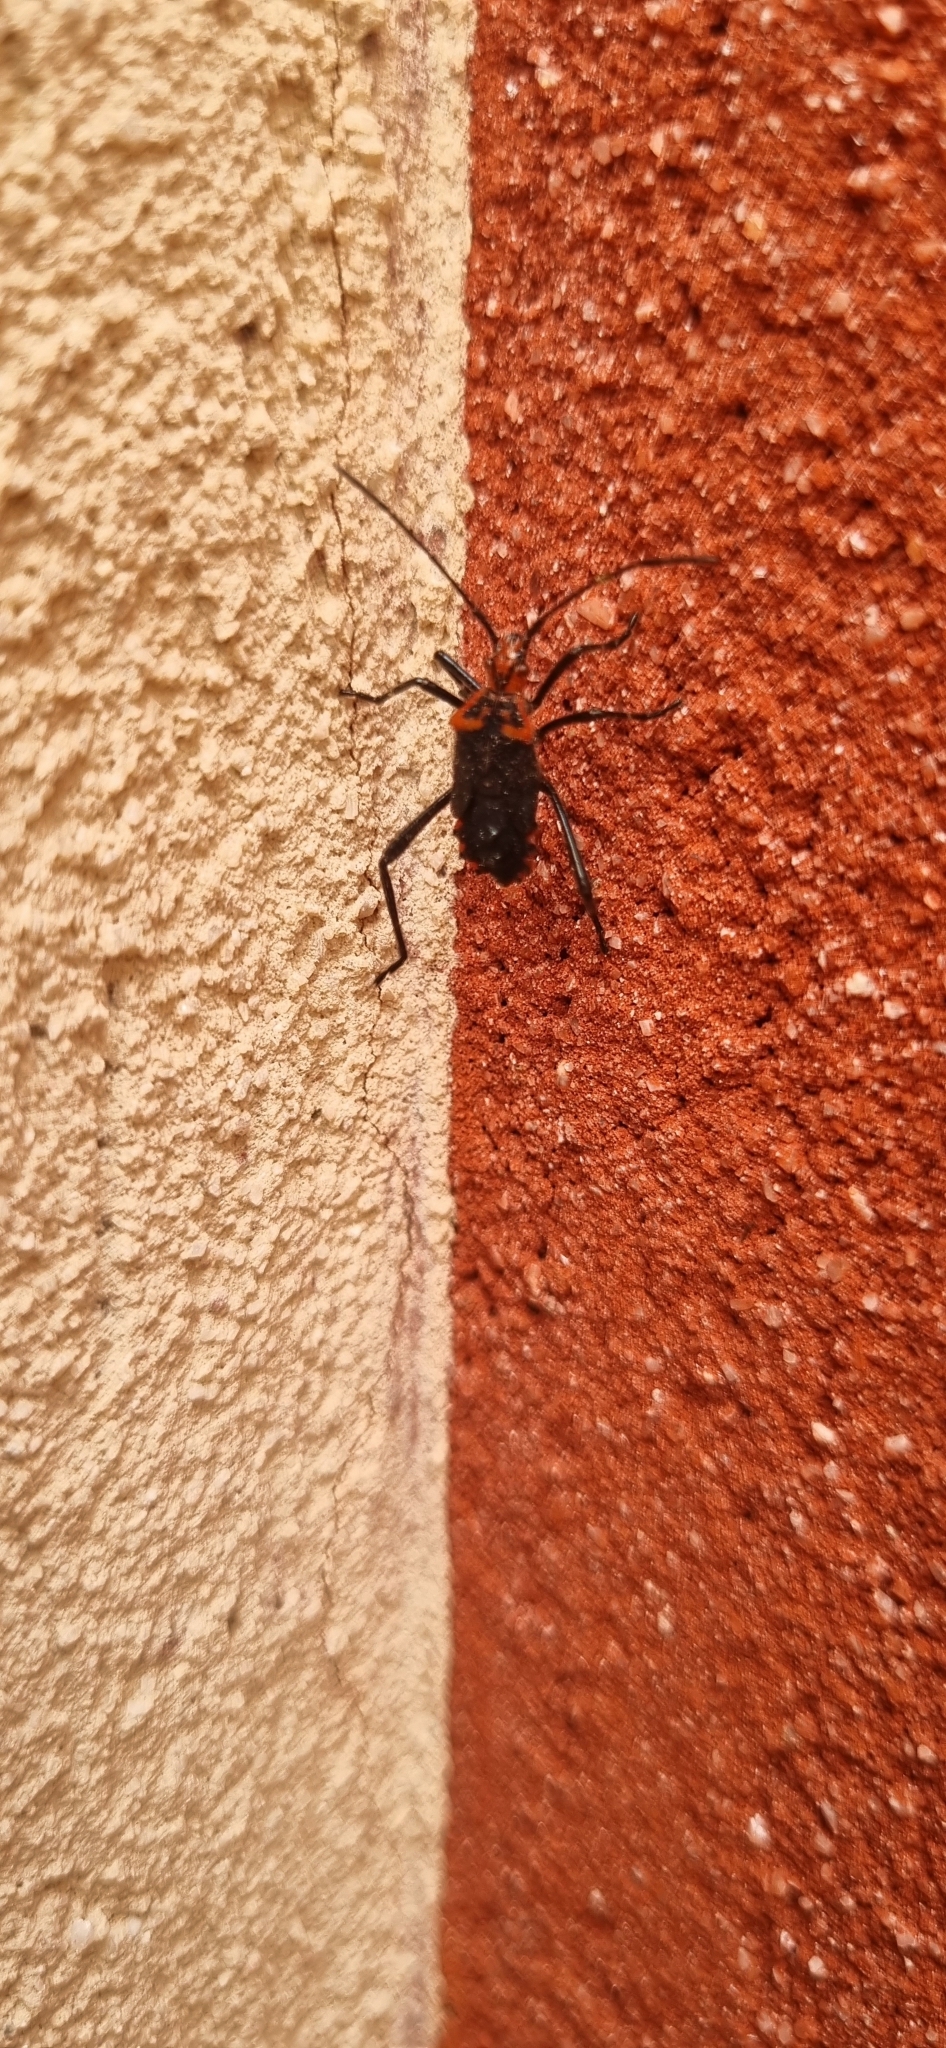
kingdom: Animalia
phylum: Arthropoda
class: Insecta
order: Hemiptera
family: Coreidae
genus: Phthiacnemia
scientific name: Phthiacnemia picta
